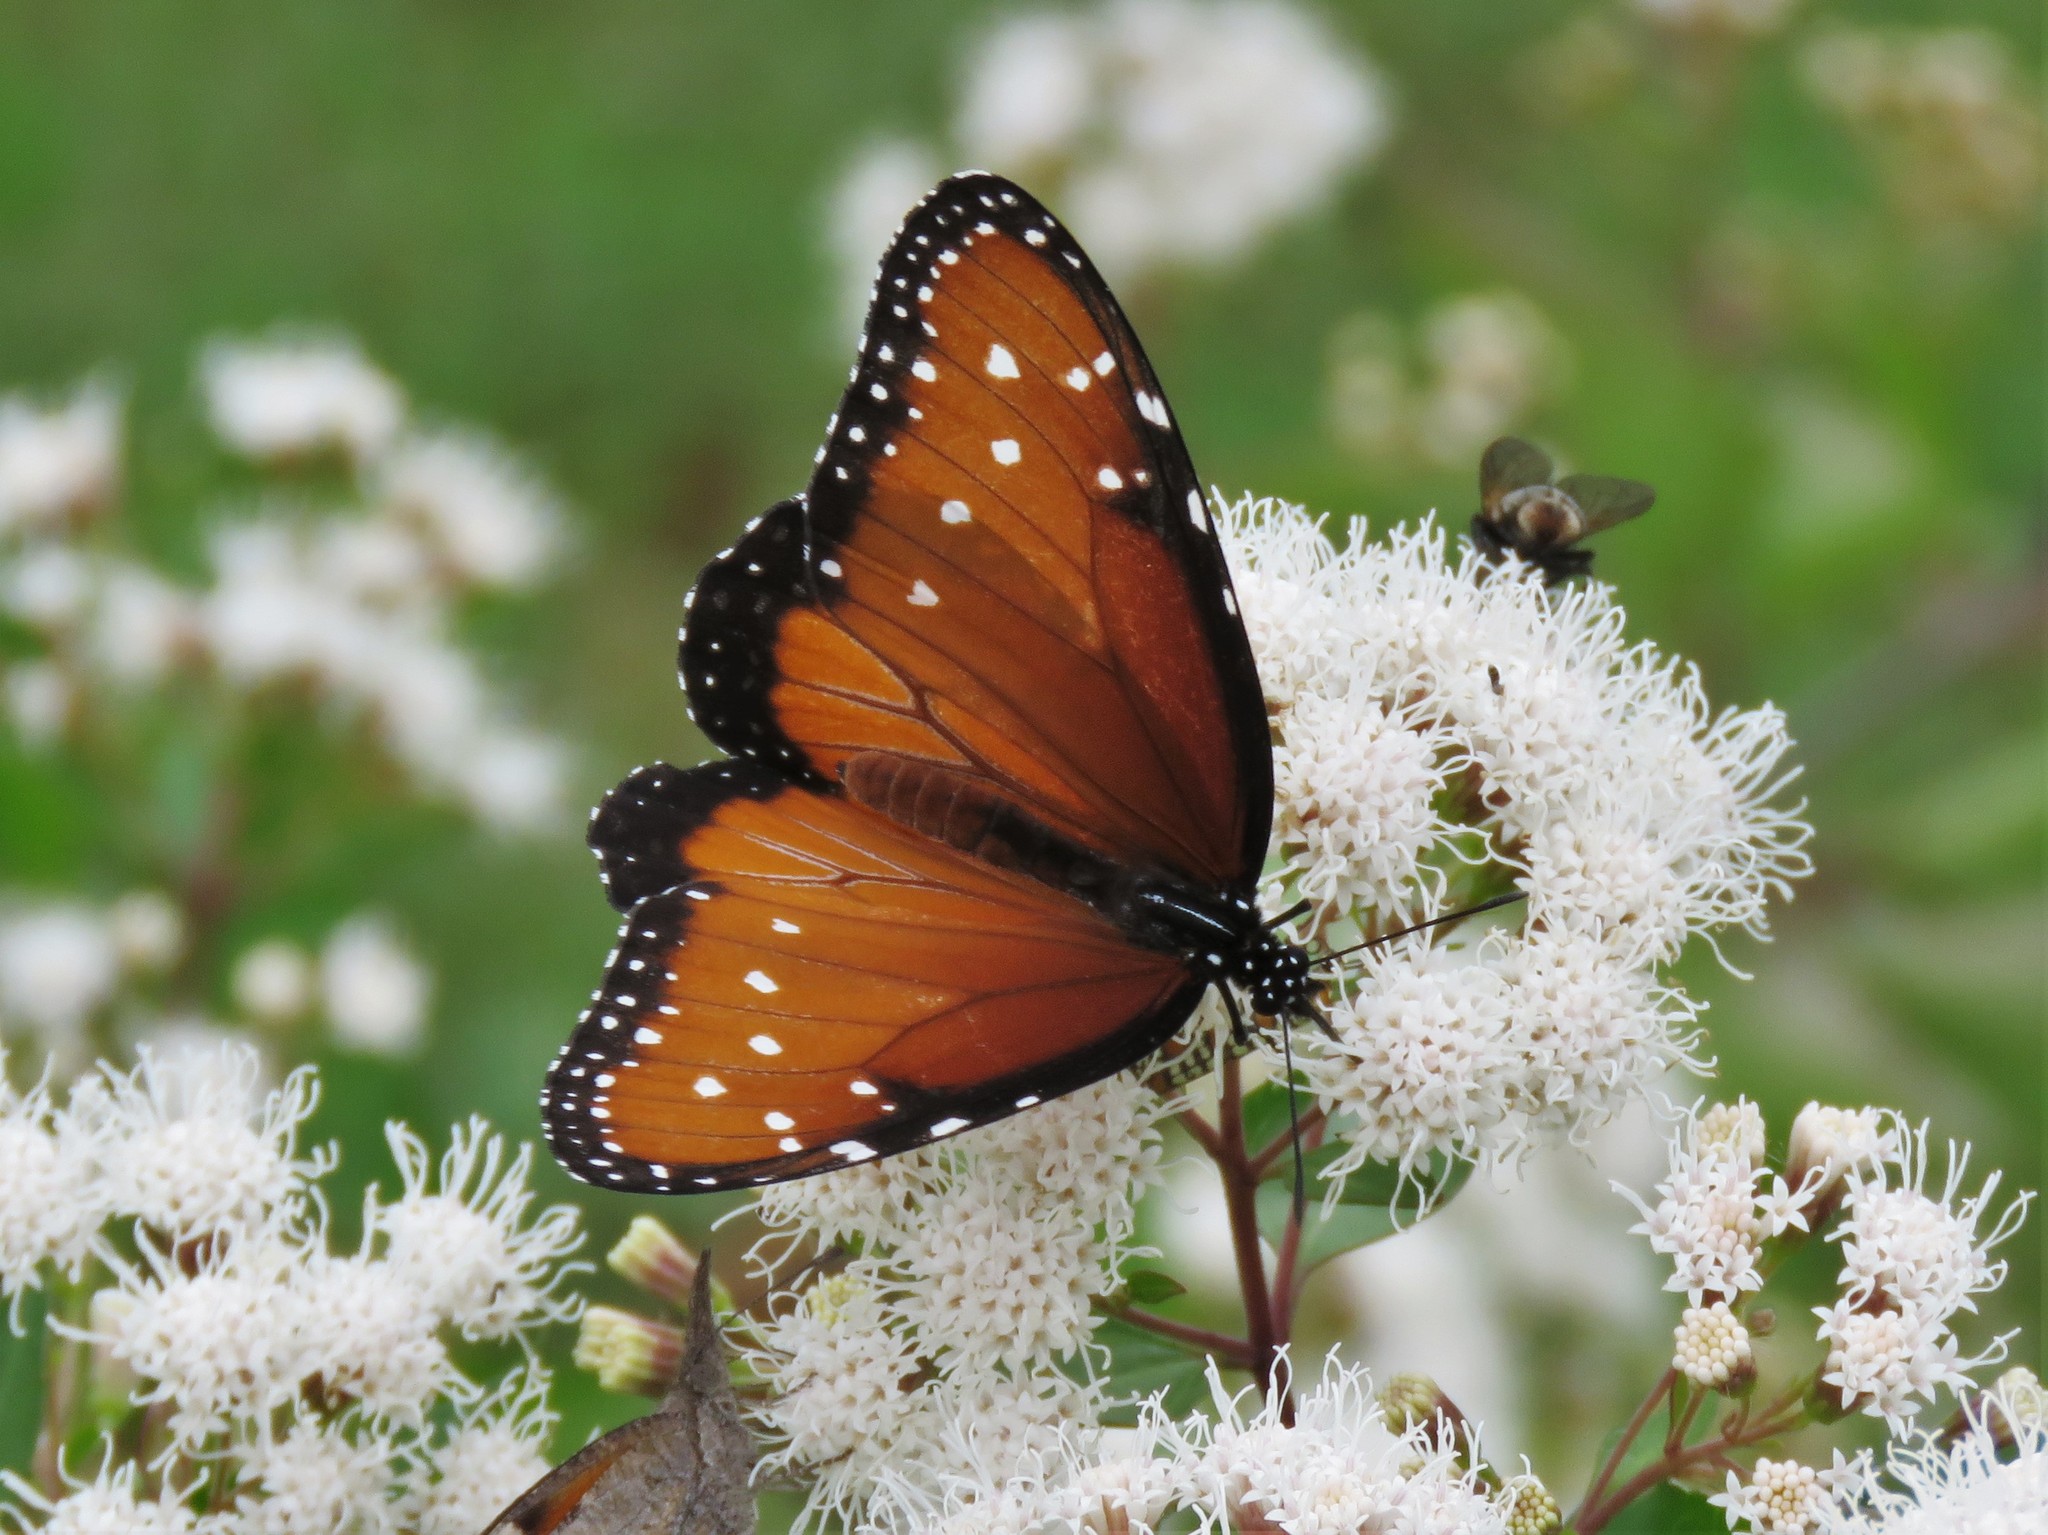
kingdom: Animalia
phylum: Arthropoda
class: Insecta
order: Lepidoptera
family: Nymphalidae
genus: Danaus
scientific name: Danaus gilippus
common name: Queen
